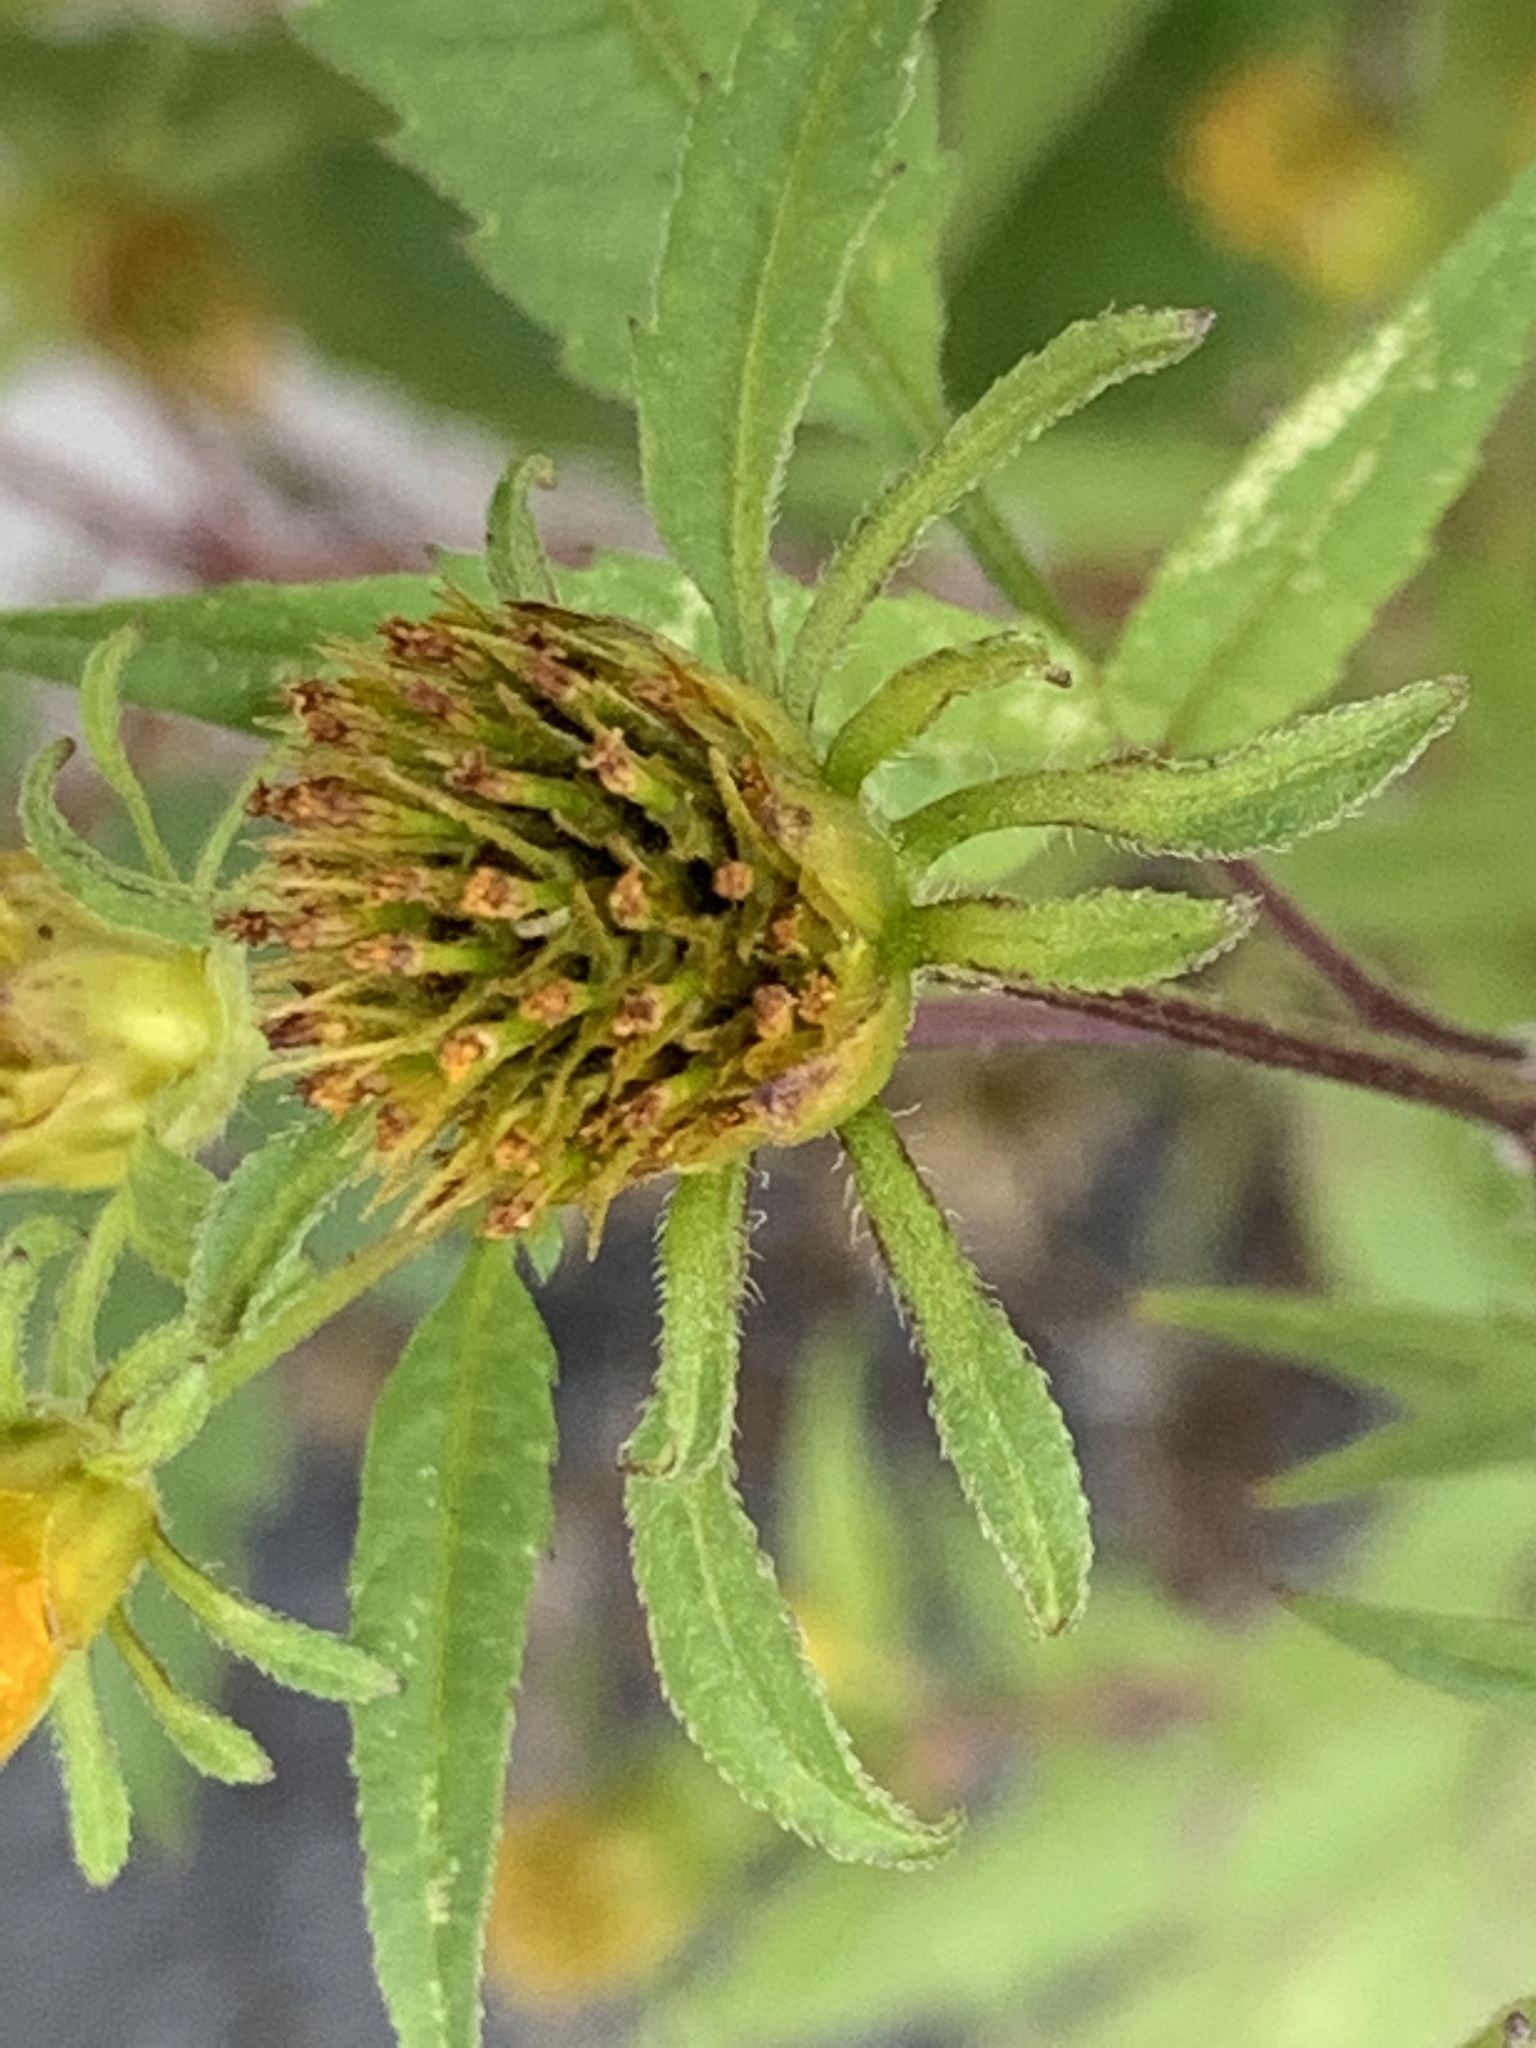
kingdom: Plantae
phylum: Tracheophyta
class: Magnoliopsida
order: Asterales
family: Asteraceae
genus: Bidens
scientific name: Bidens frondosa
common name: Beggarticks
